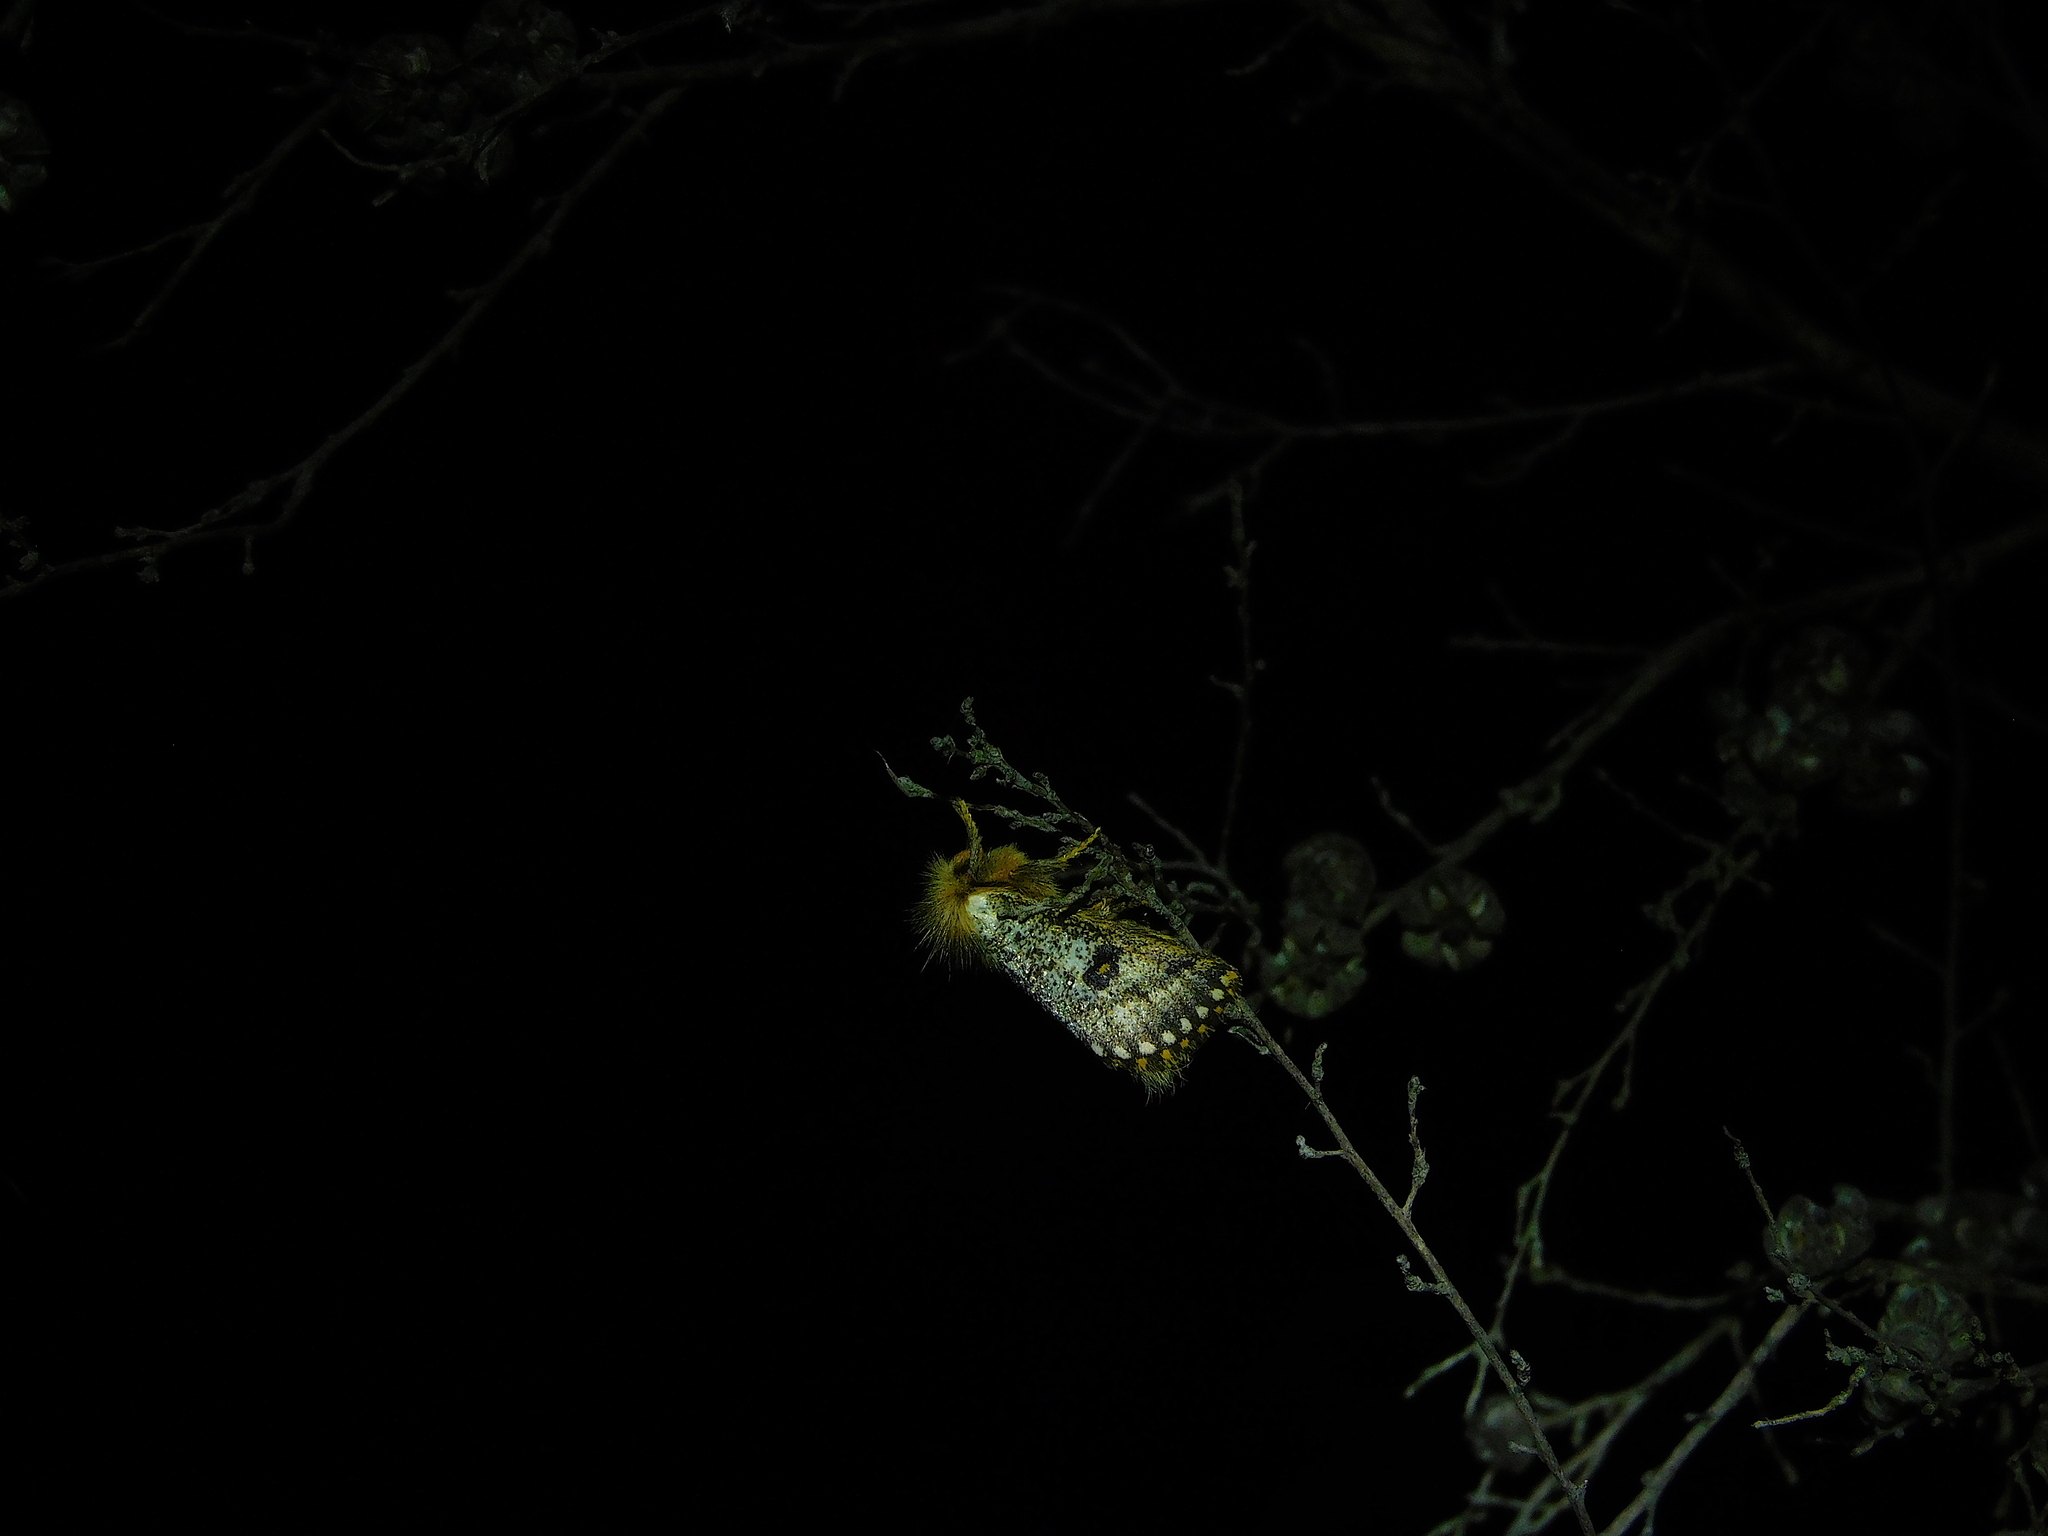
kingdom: Animalia
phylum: Arthropoda
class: Insecta
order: Lepidoptera
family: Notodontidae
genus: Epicoma
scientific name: Epicoma contristis
